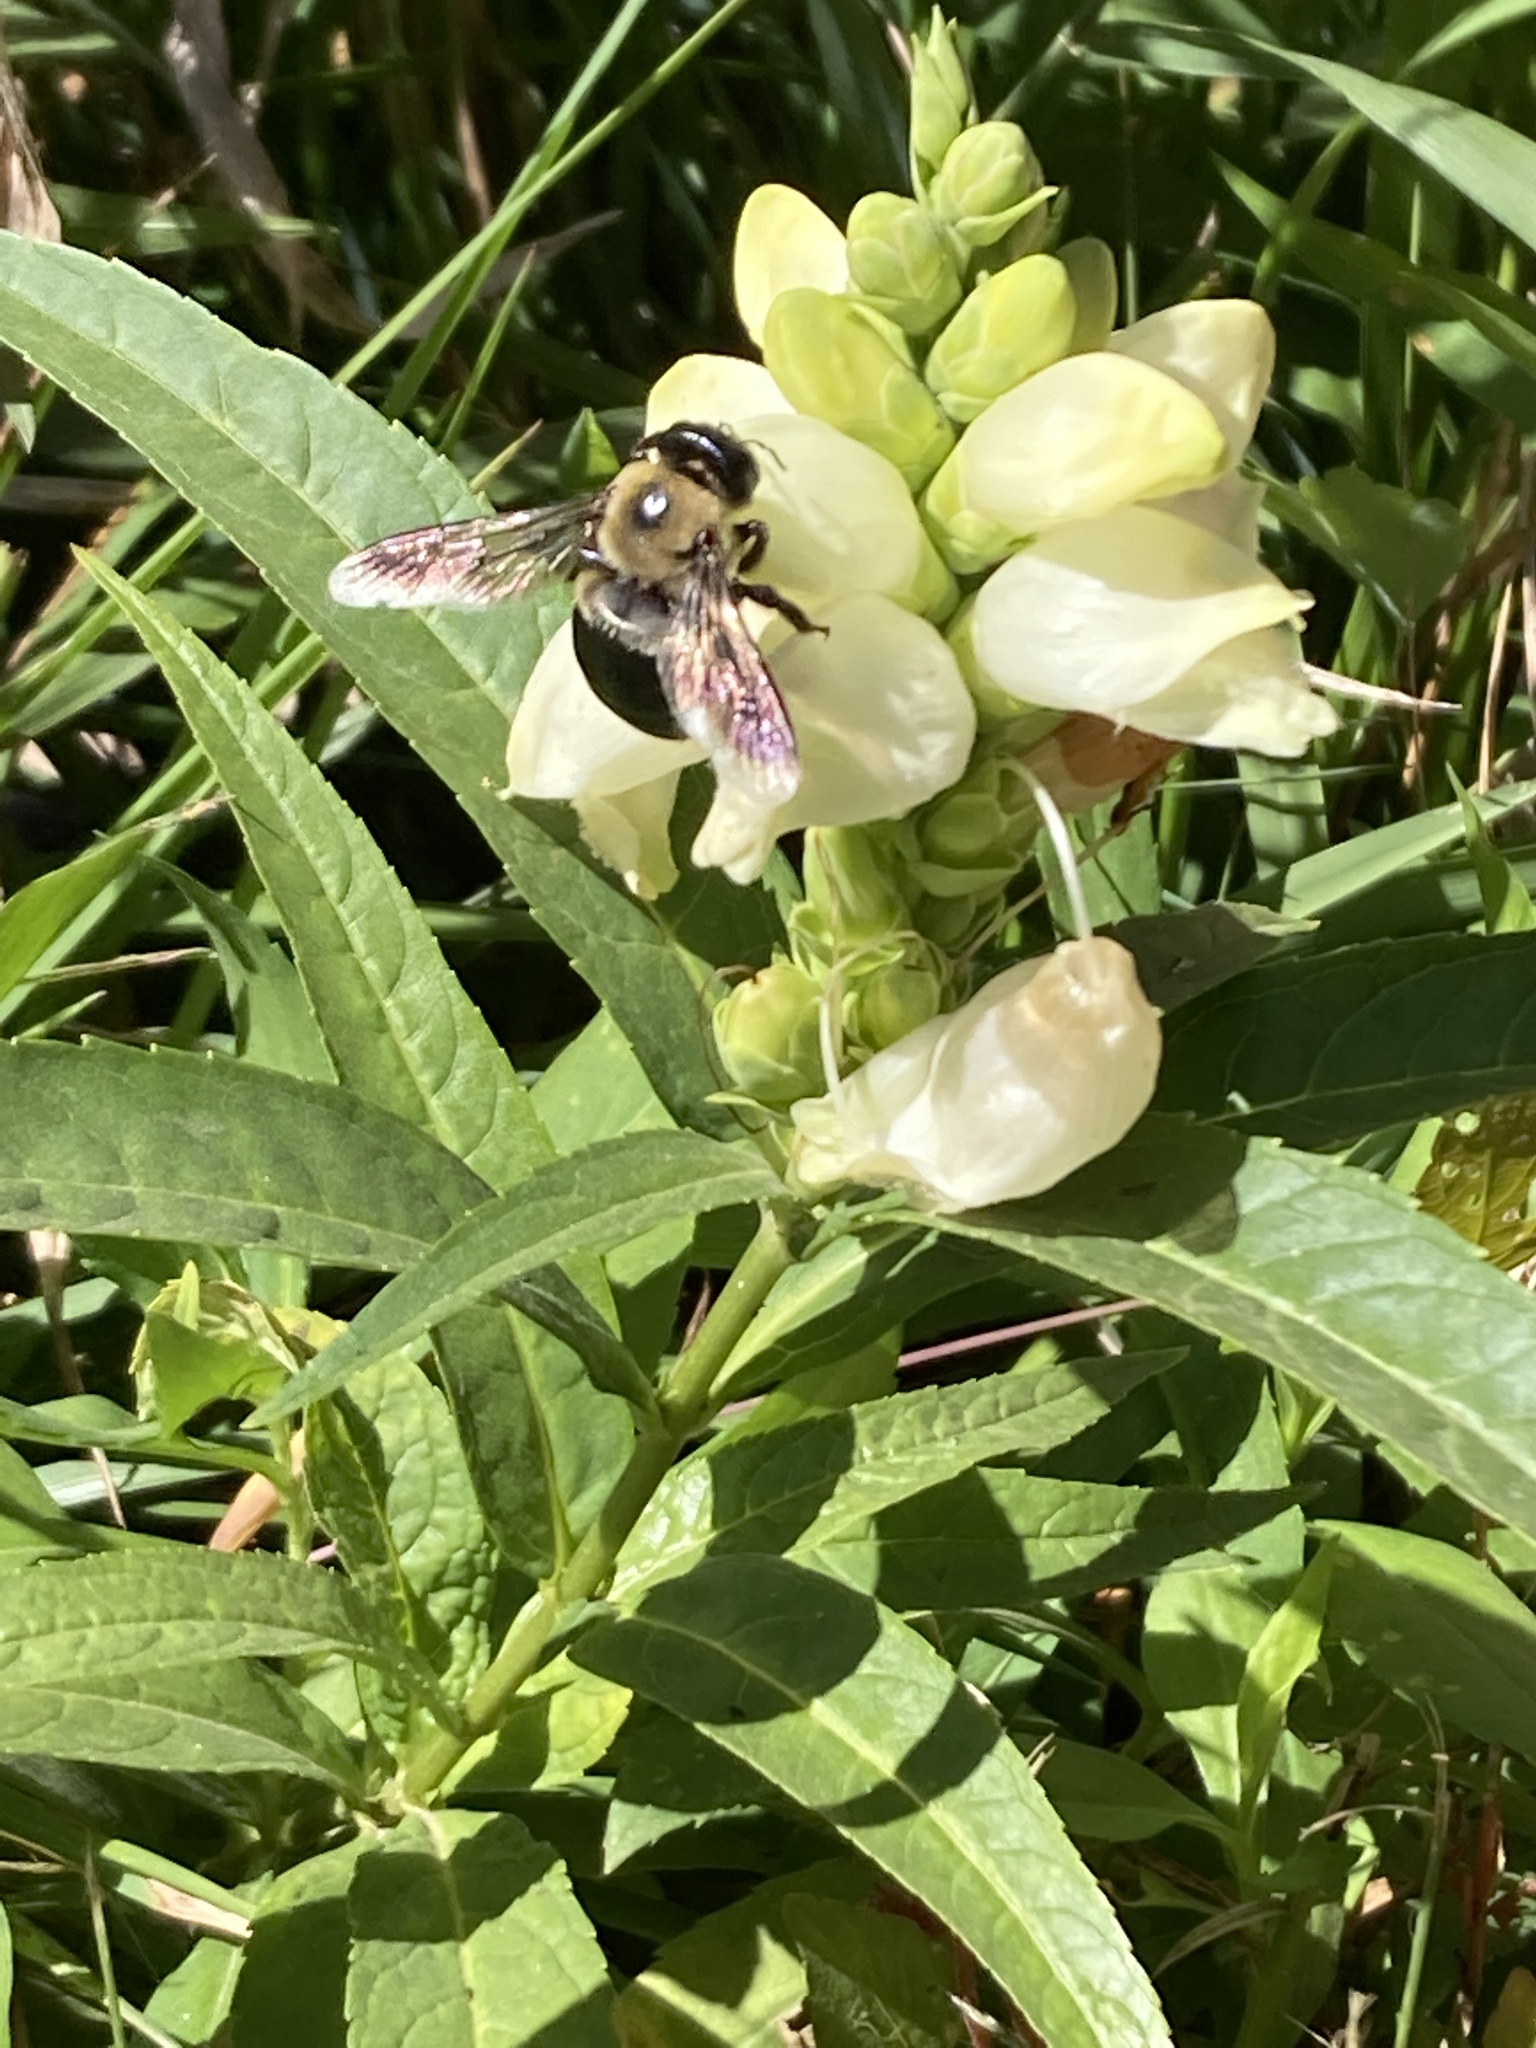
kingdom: Animalia
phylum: Arthropoda
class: Insecta
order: Hymenoptera
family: Apidae
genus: Xylocopa
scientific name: Xylocopa virginica
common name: Carpenter bee
